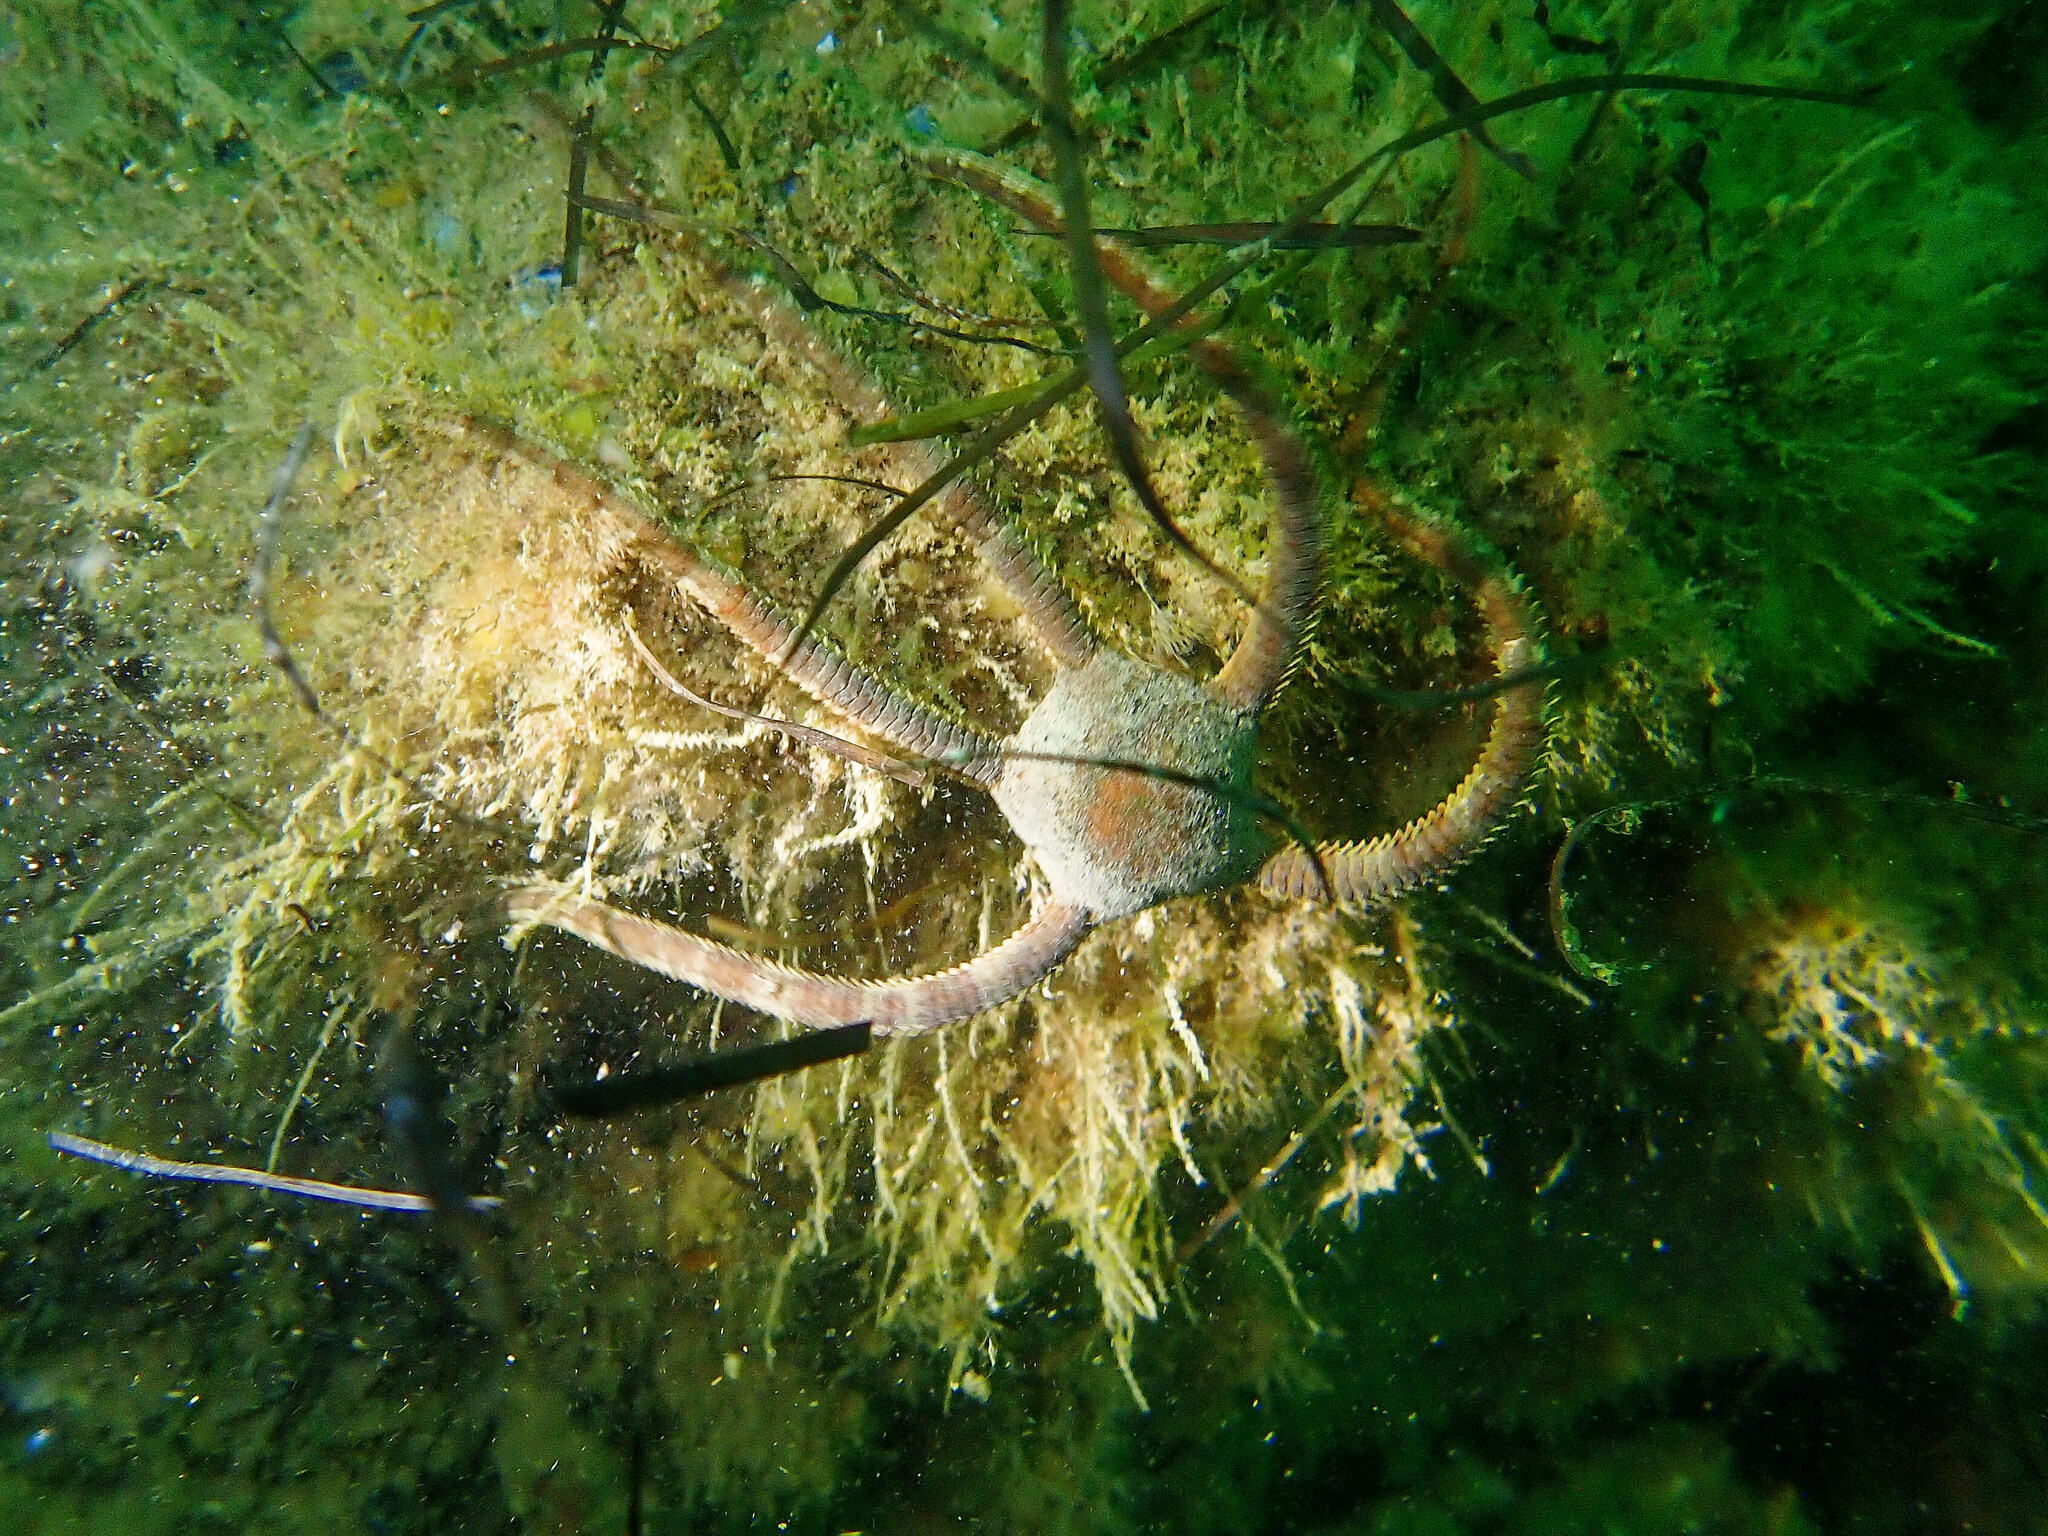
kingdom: Animalia
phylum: Echinodermata
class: Ophiuroidea
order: Ophiacanthida
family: Ophiodermatidae
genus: Ophioderma
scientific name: Ophioderma longicaudum
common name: Smooth brittle-star
